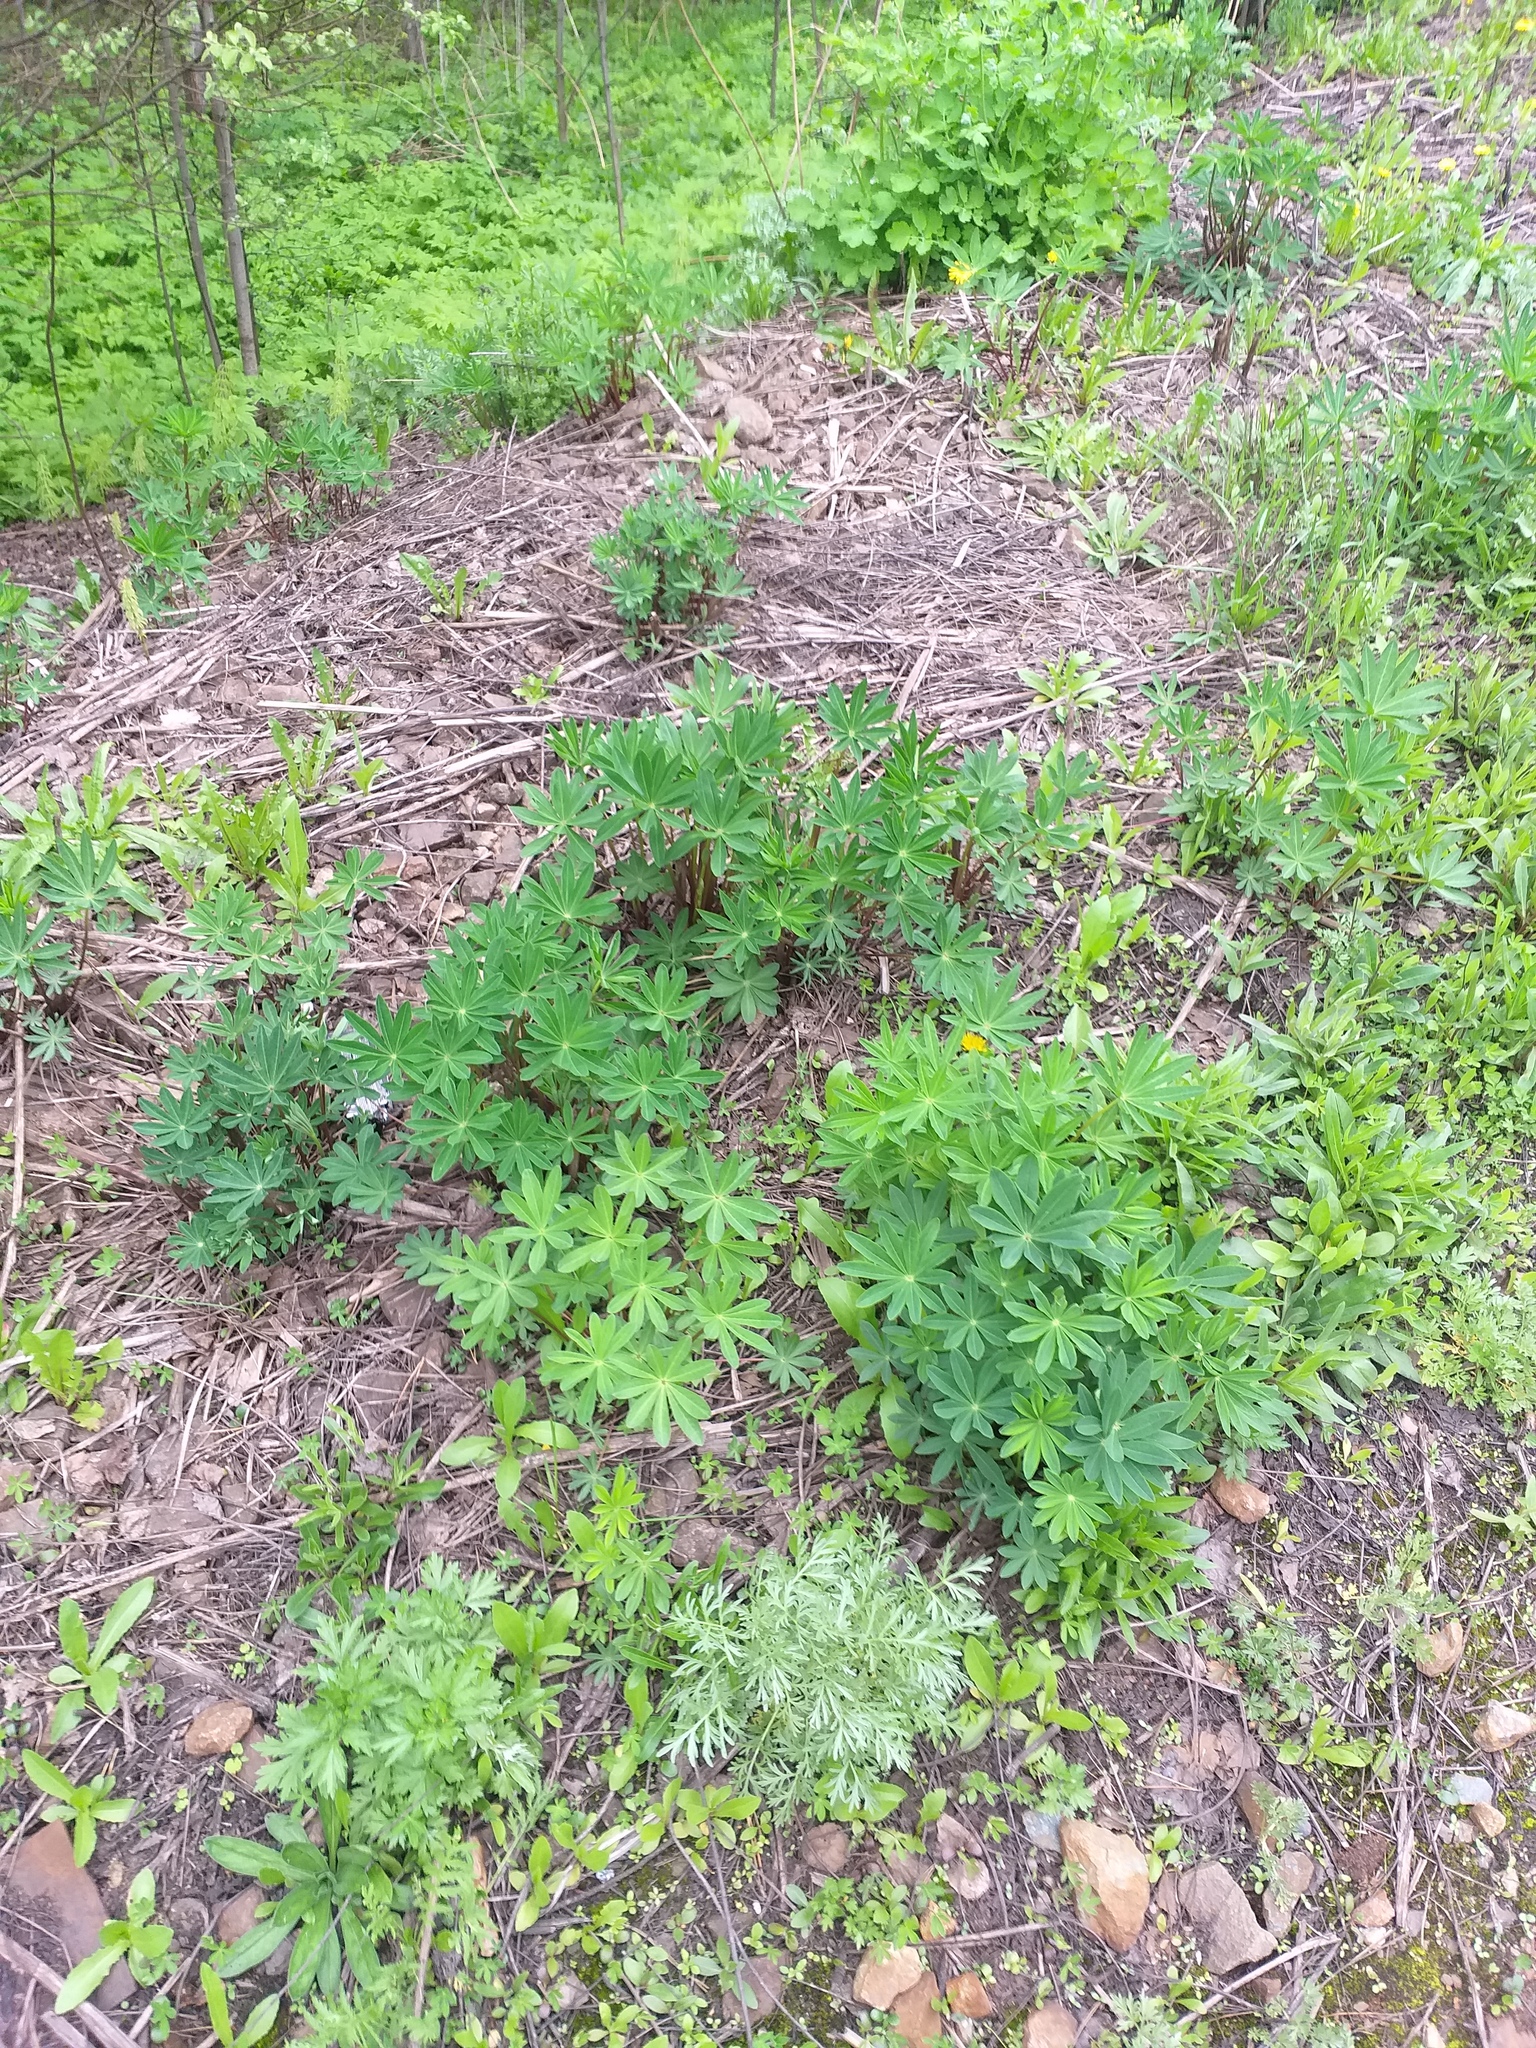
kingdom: Plantae
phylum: Tracheophyta
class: Magnoliopsida
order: Fabales
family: Fabaceae
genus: Lupinus
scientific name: Lupinus polyphyllus
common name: Garden lupin
